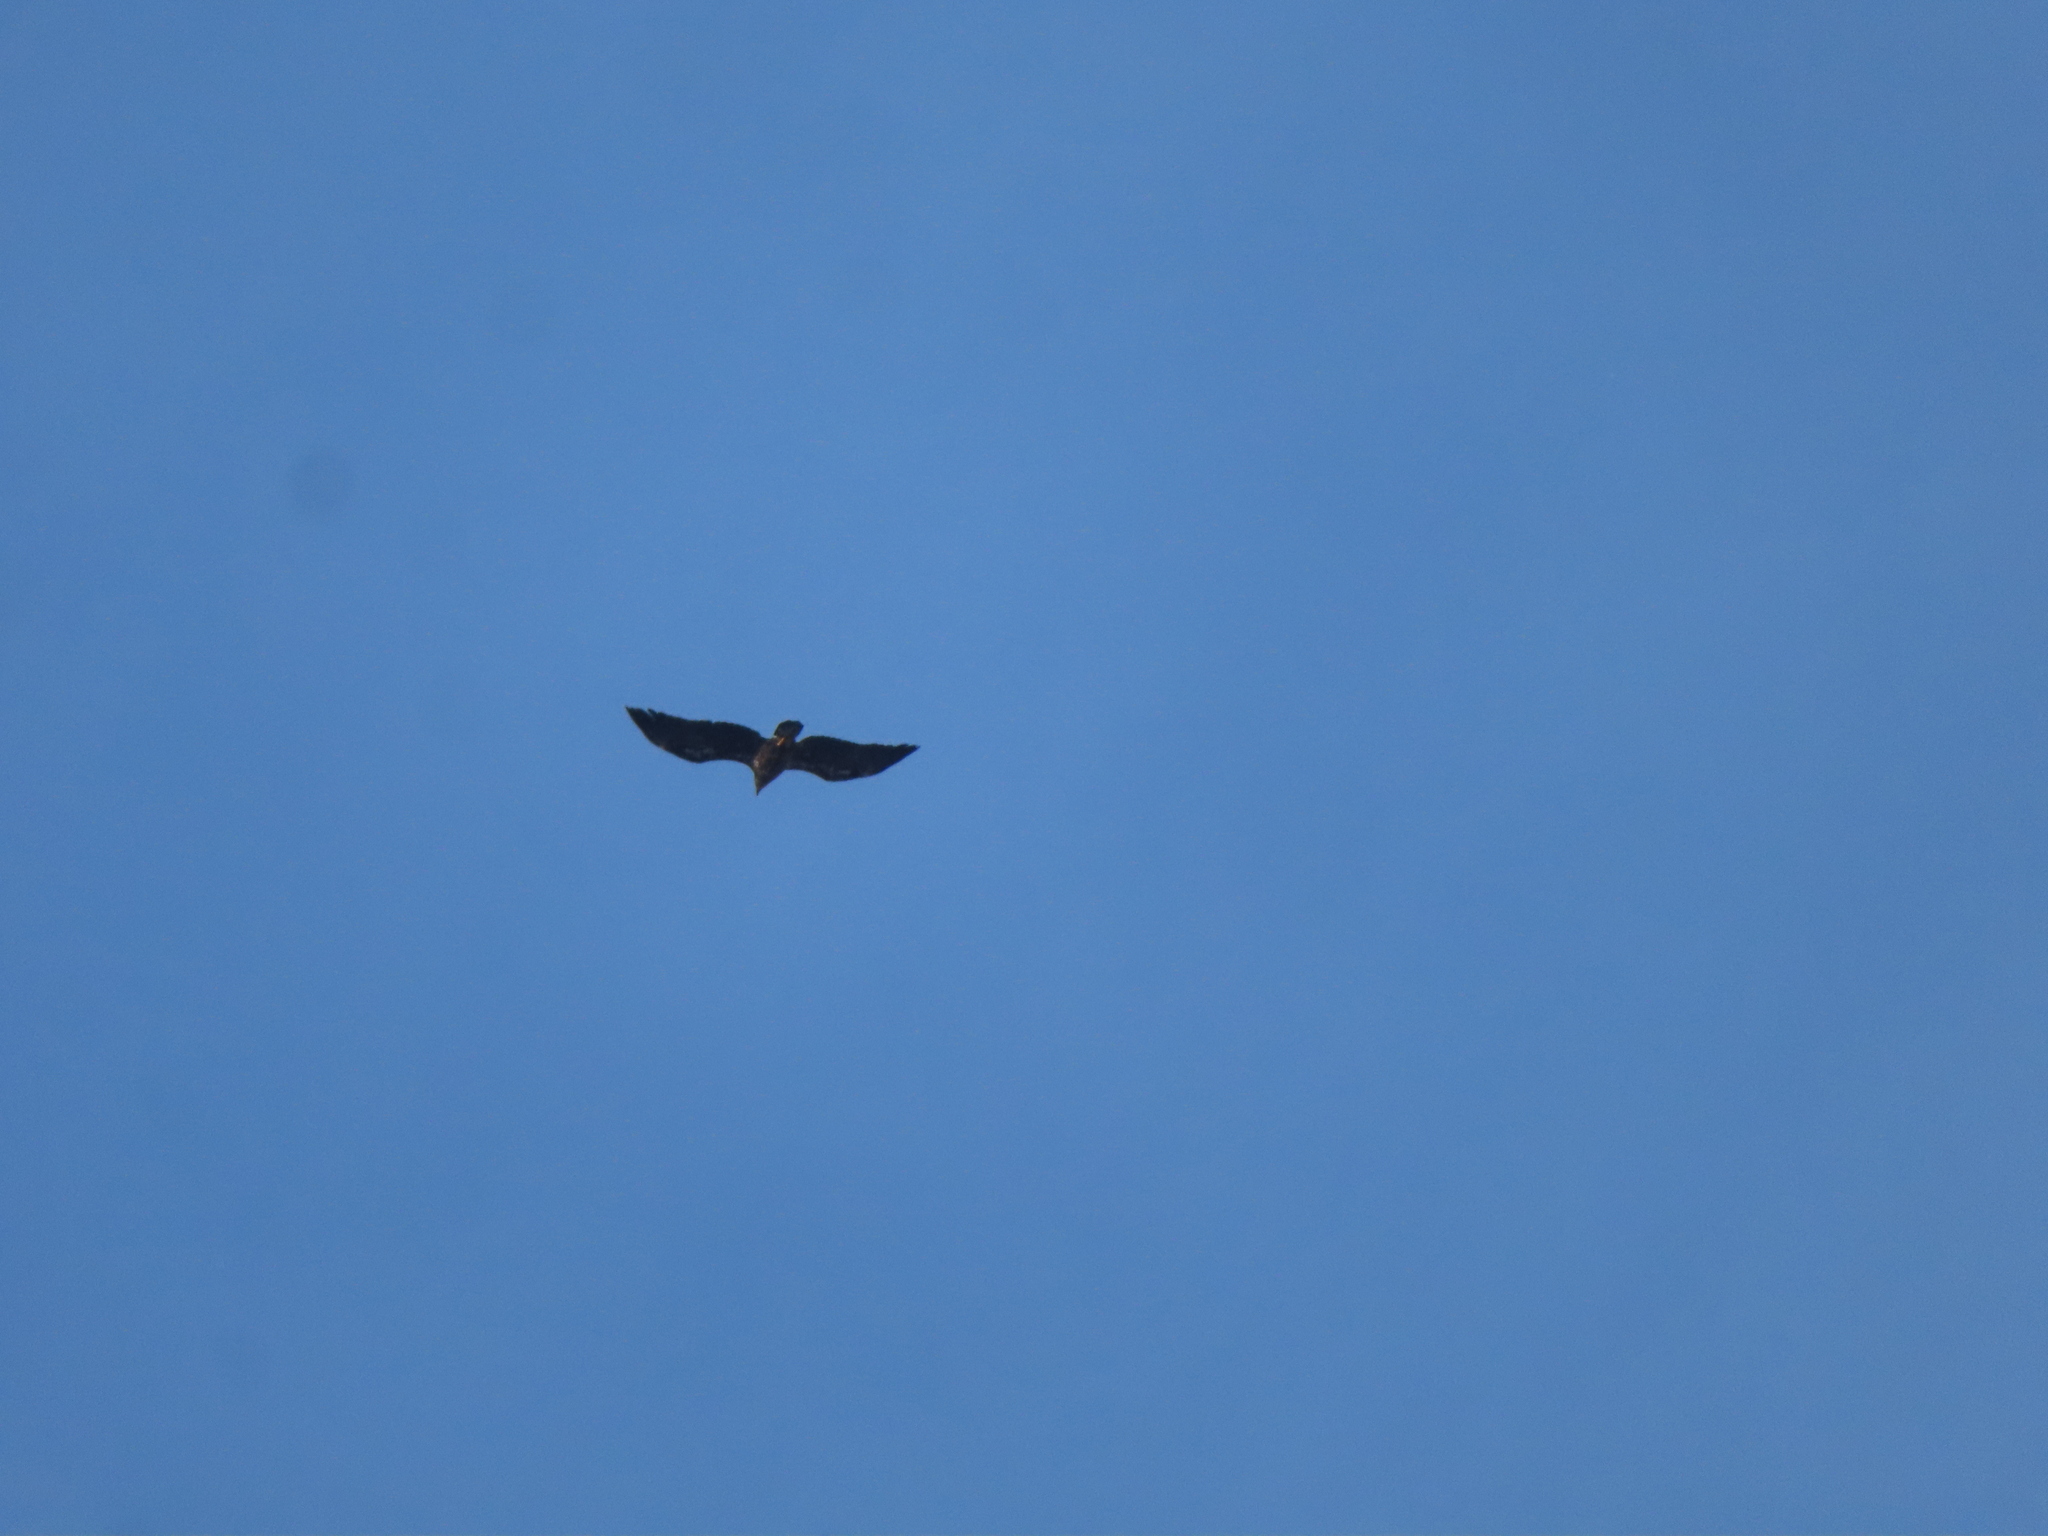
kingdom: Animalia
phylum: Chordata
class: Aves
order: Accipitriformes
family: Accipitridae
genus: Haliaeetus
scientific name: Haliaeetus leucocephalus
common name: Bald eagle
